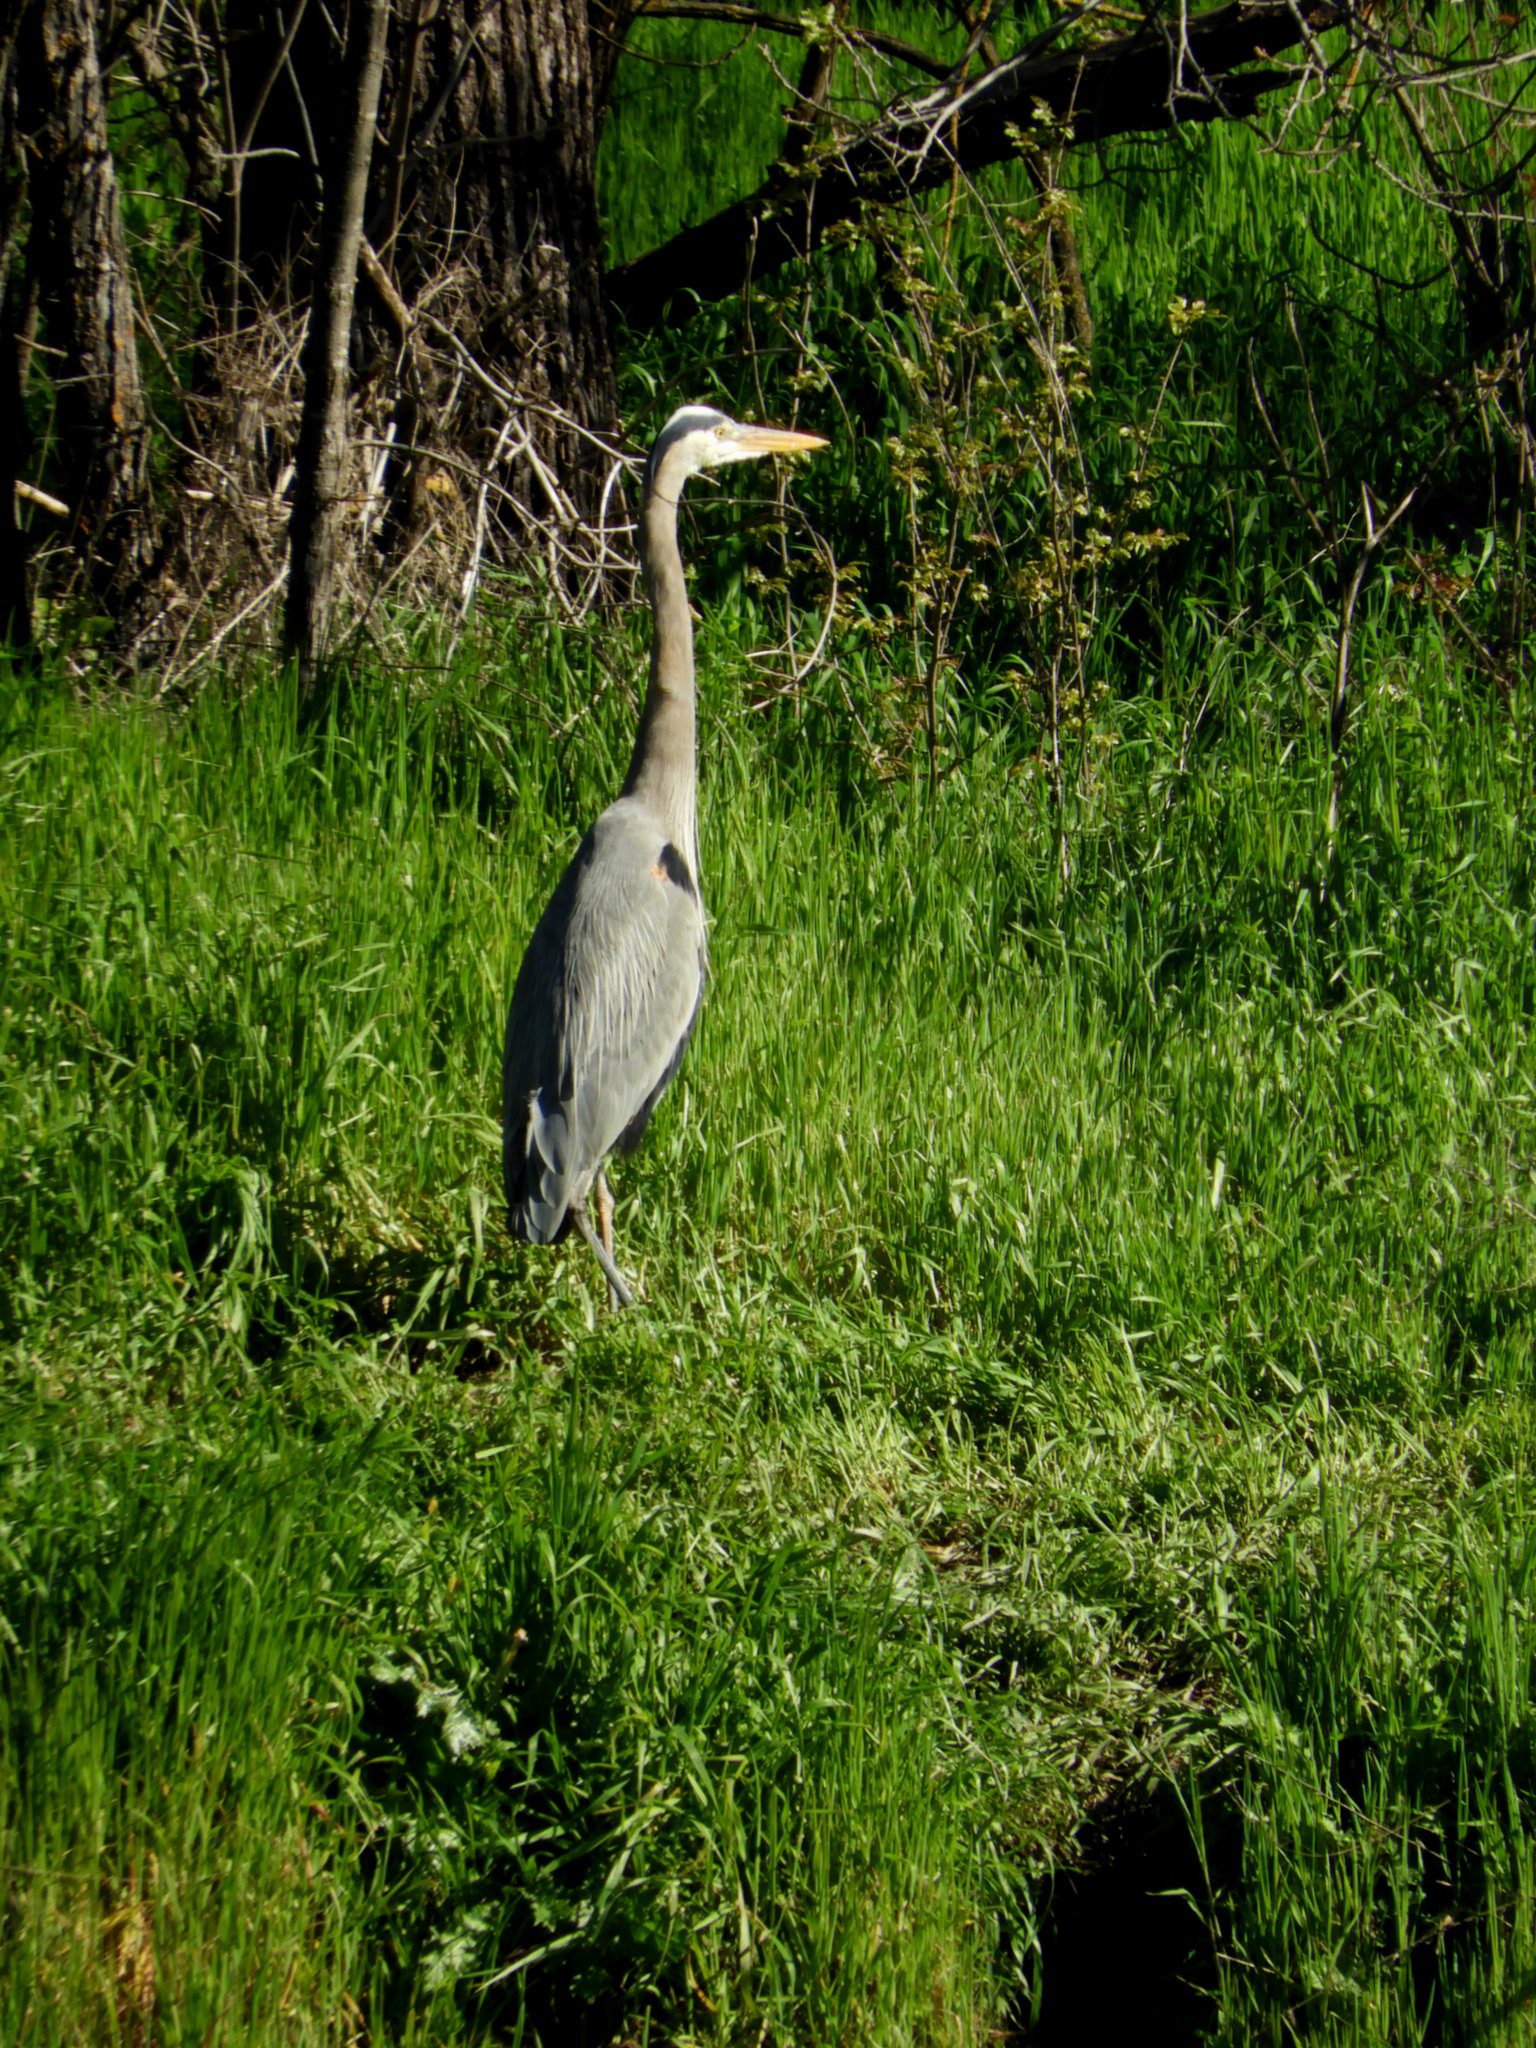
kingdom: Animalia
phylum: Chordata
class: Aves
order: Pelecaniformes
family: Ardeidae
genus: Ardea
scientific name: Ardea herodias
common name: Great blue heron
